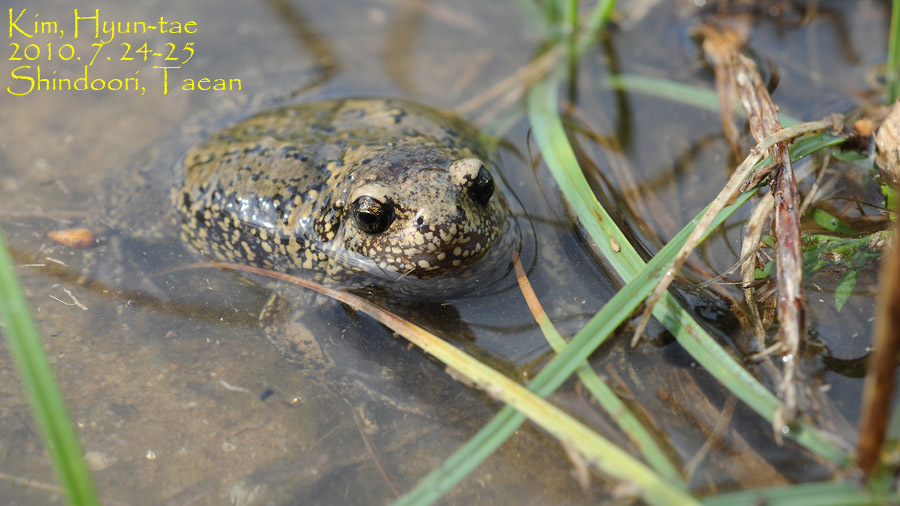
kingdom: Animalia
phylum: Chordata
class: Amphibia
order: Anura
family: Microhylidae
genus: Kaloula
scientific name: Kaloula borealis
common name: Boreal digging frog
